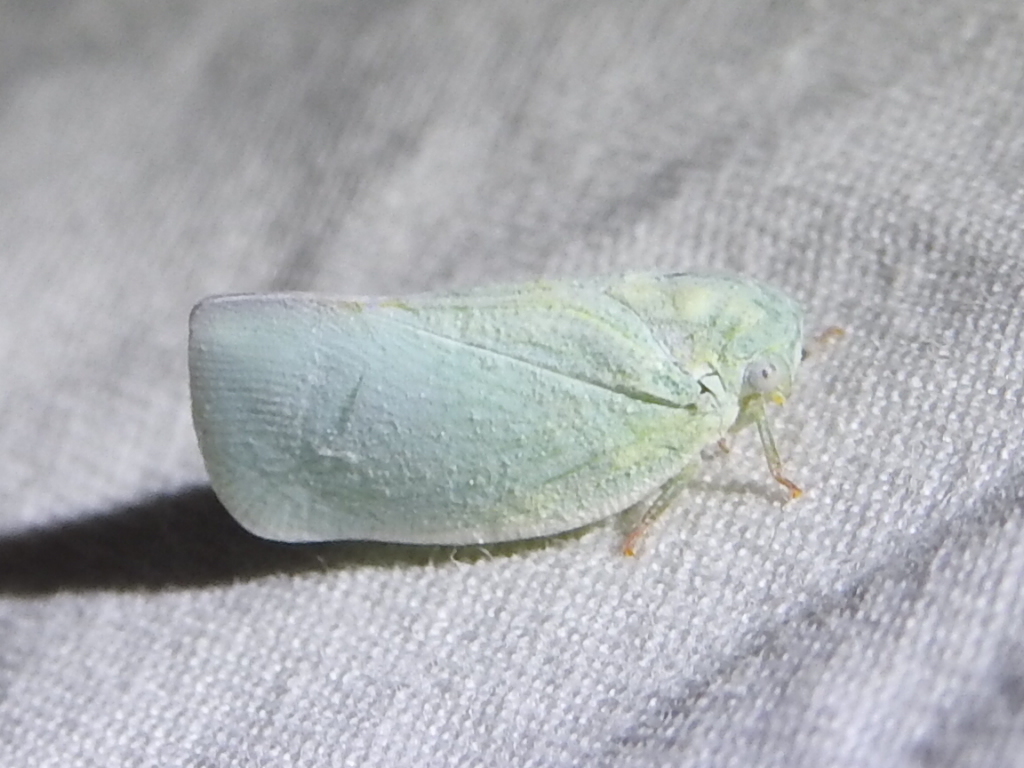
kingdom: Animalia
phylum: Arthropoda
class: Insecta
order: Hemiptera
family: Flatidae
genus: Flatormenis
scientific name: Flatormenis proxima
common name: Northern flatid planthopper
